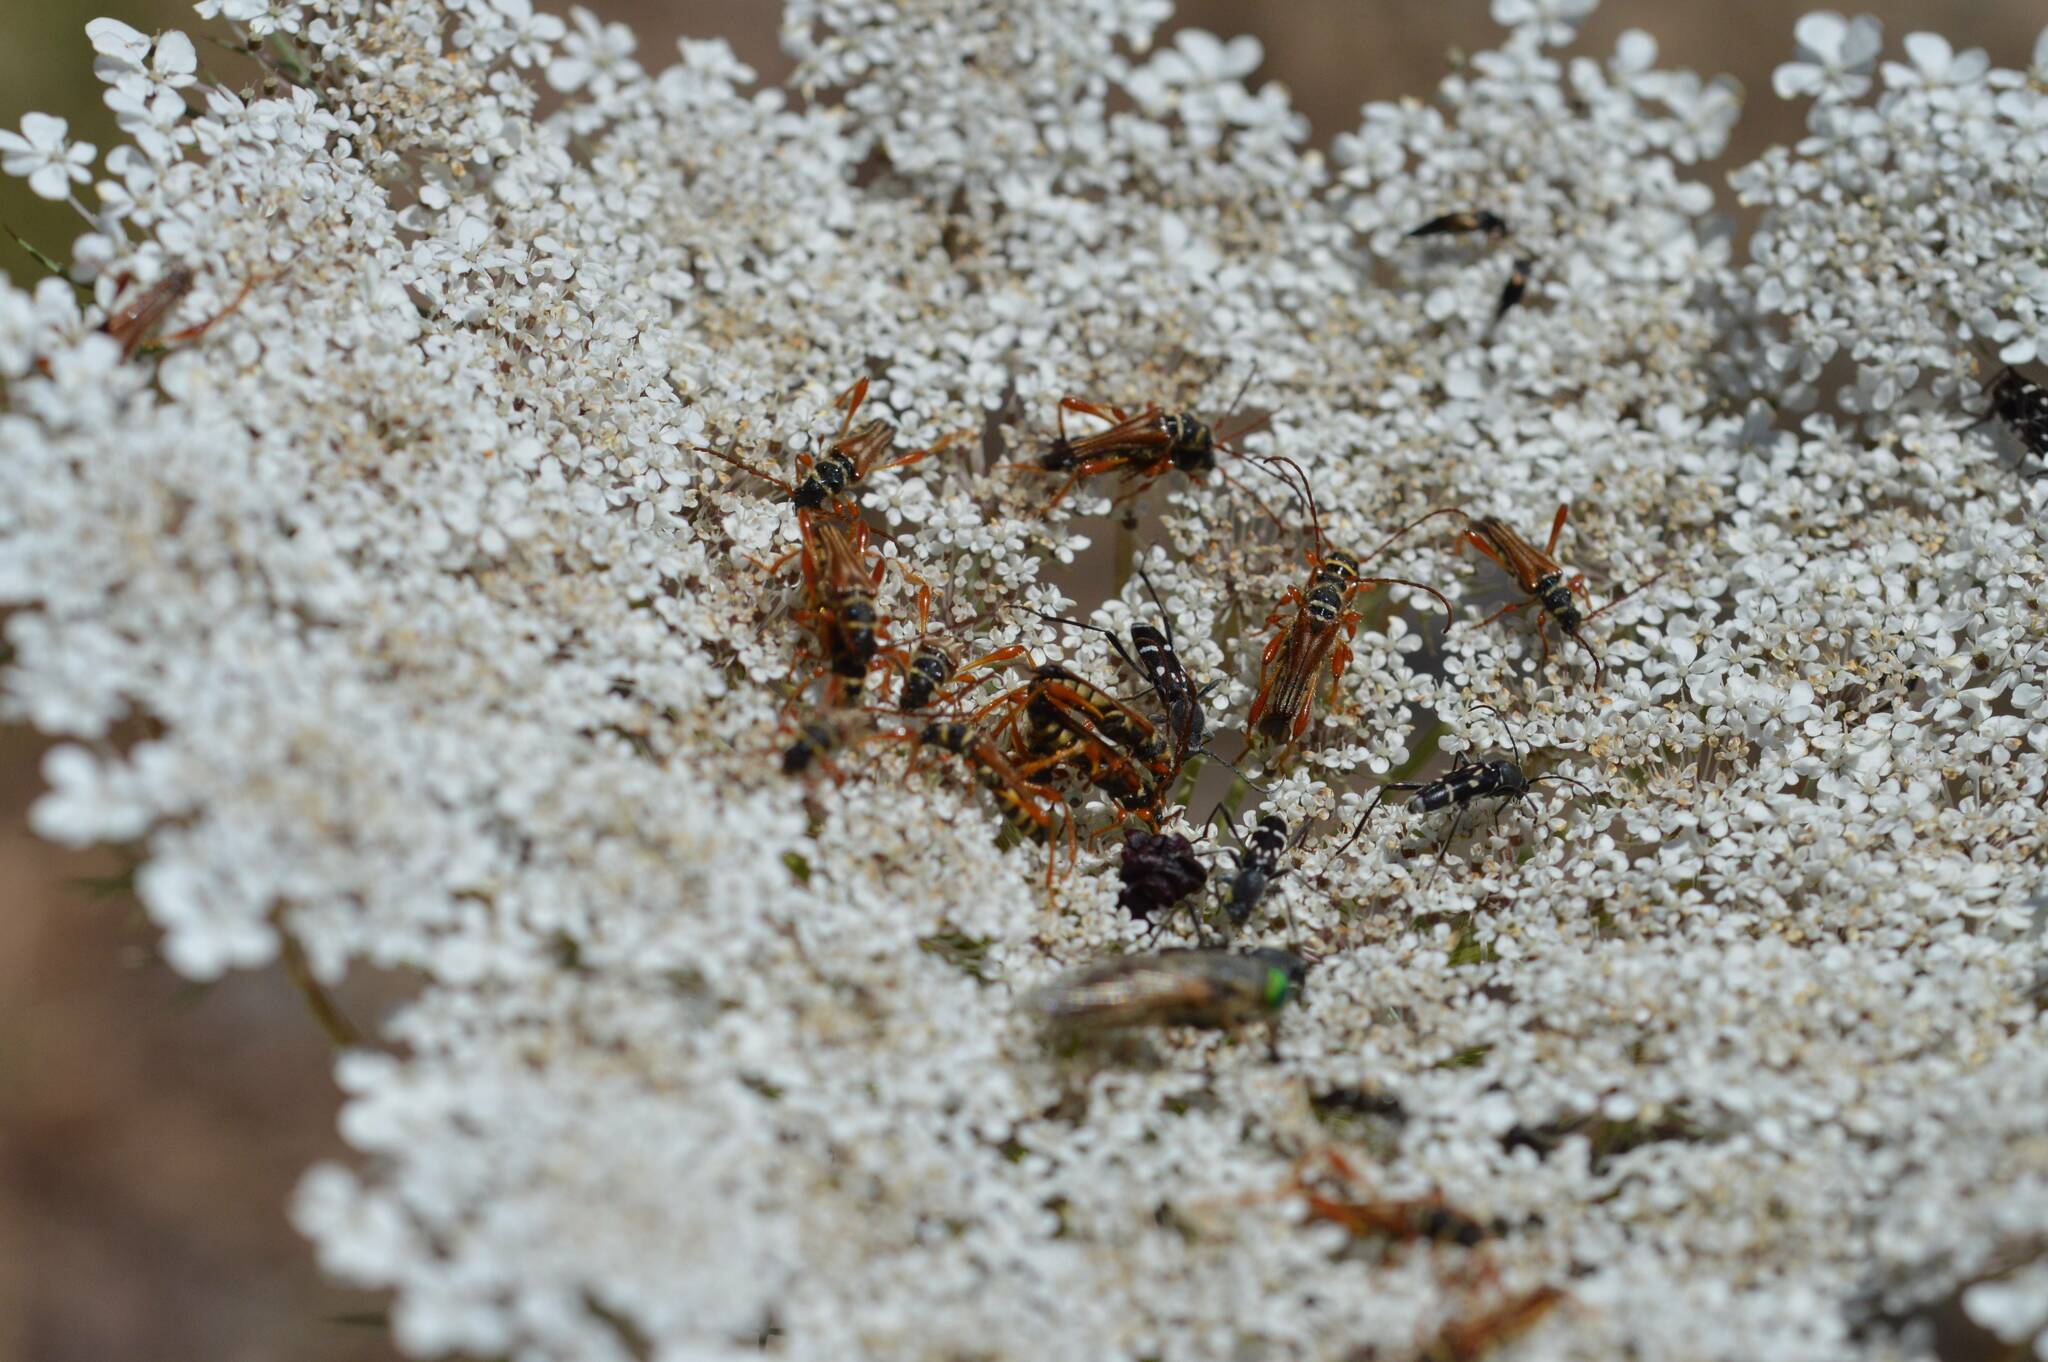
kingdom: Animalia
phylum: Arthropoda
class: Insecta
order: Coleoptera
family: Cerambycidae
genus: Chlorophorus
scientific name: Chlorophorus pelleteri
